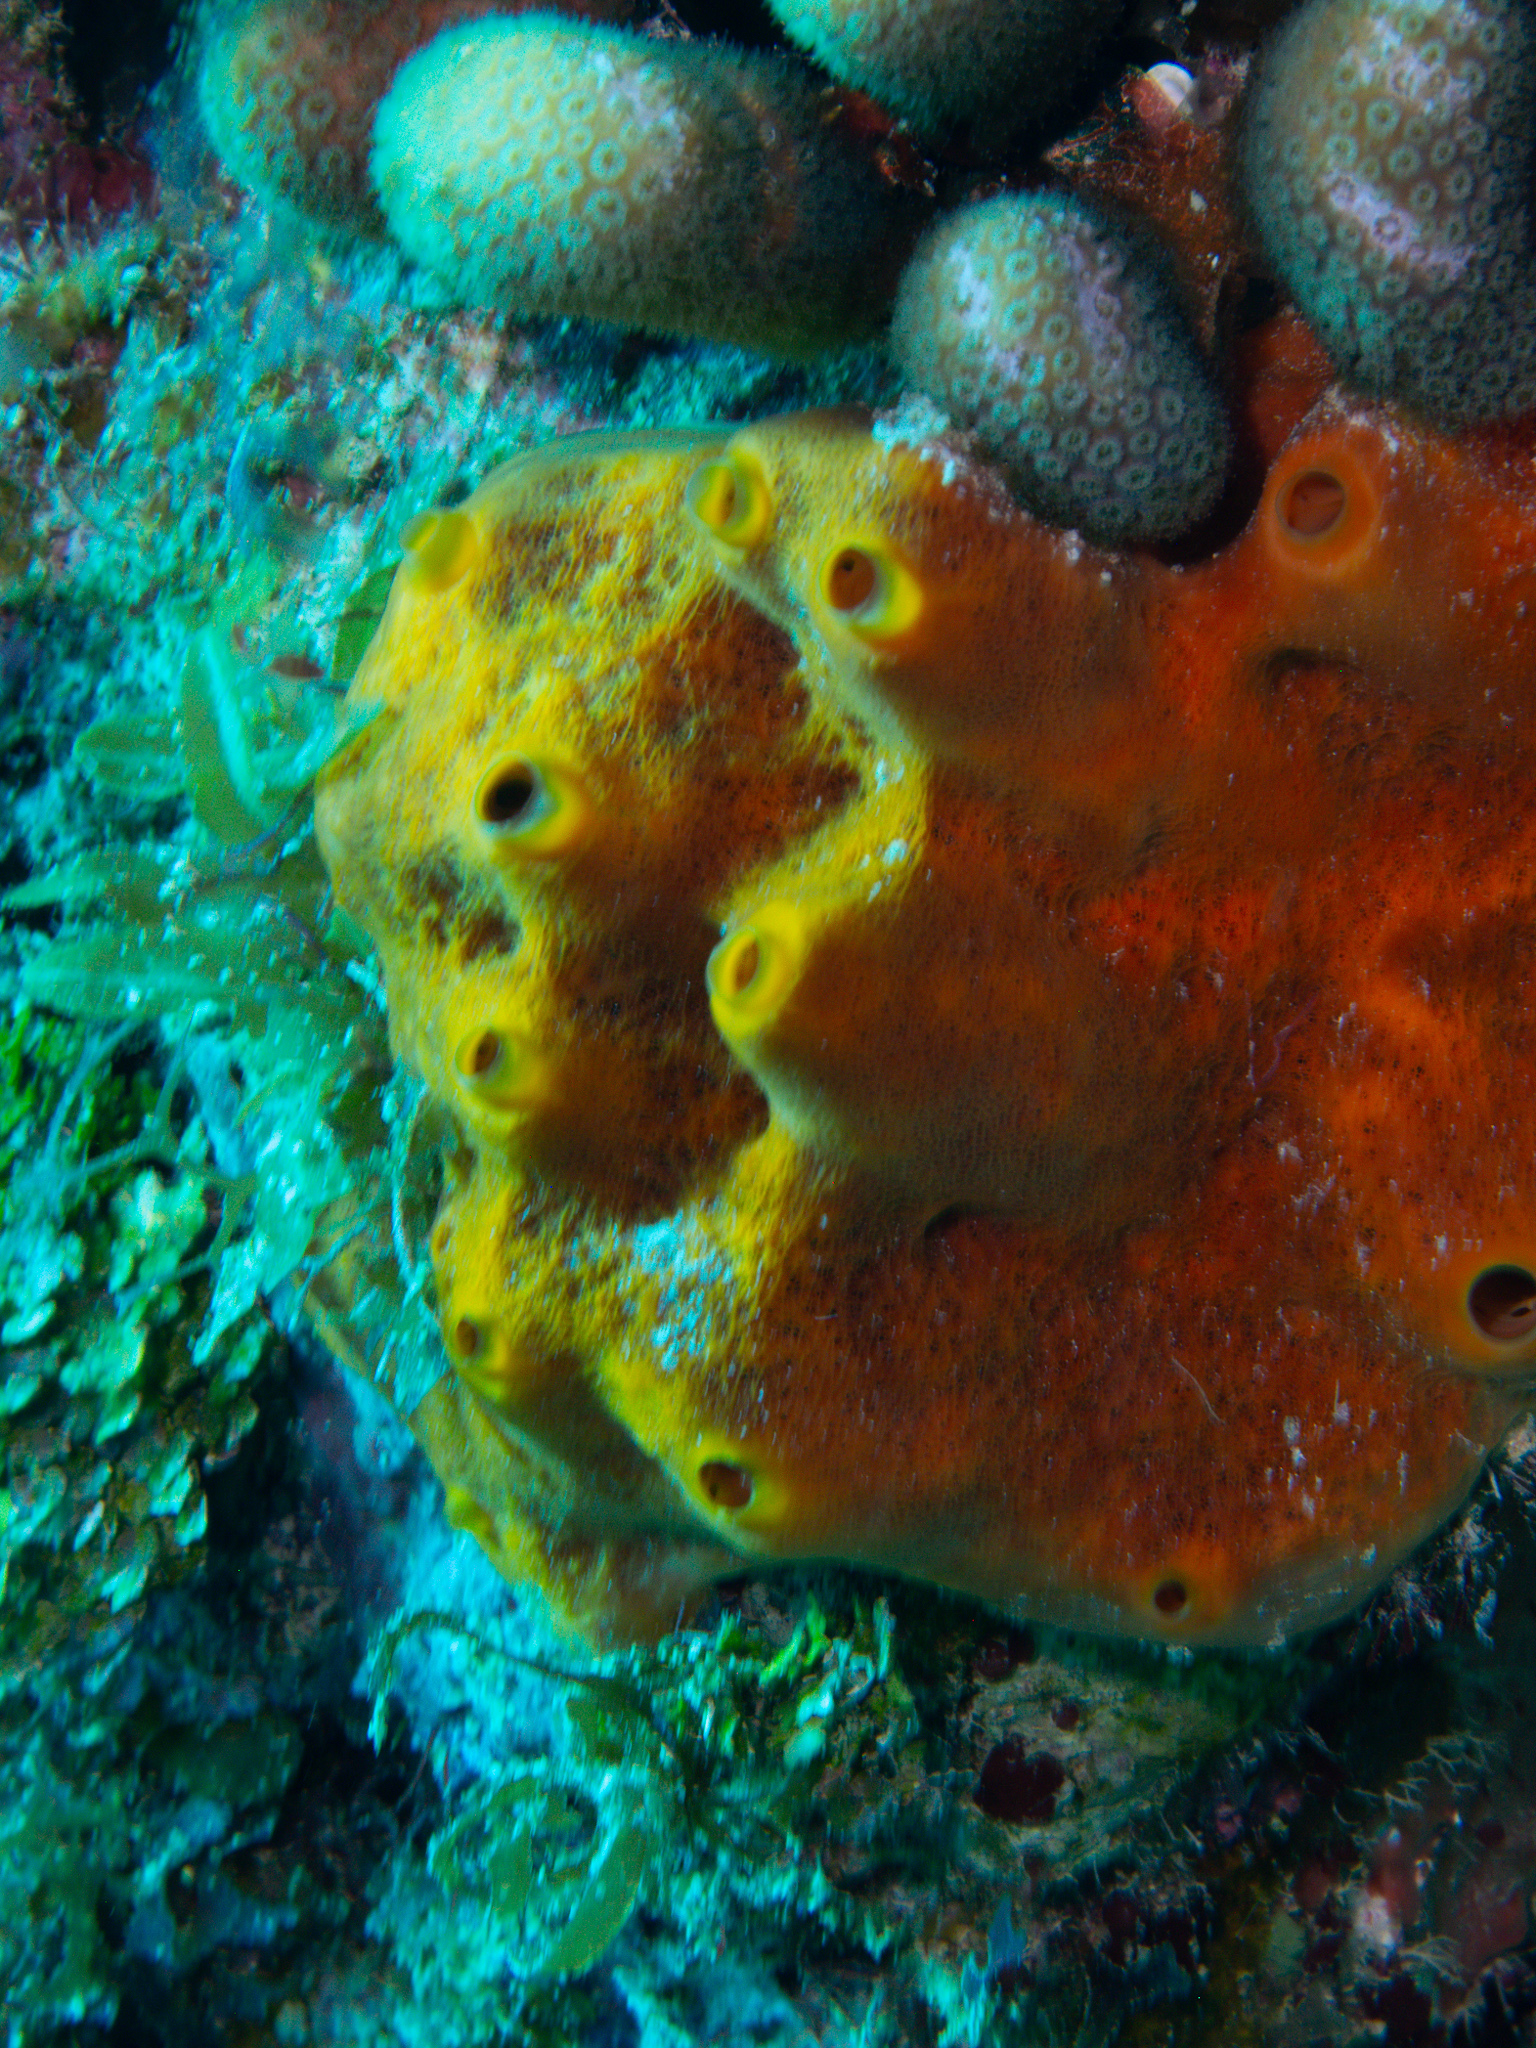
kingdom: Animalia
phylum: Porifera
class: Demospongiae
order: Axinellida
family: Raspailiidae
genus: Ectyoplasia
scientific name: Ectyoplasia ferox
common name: Brown encrusting octopus sponge
